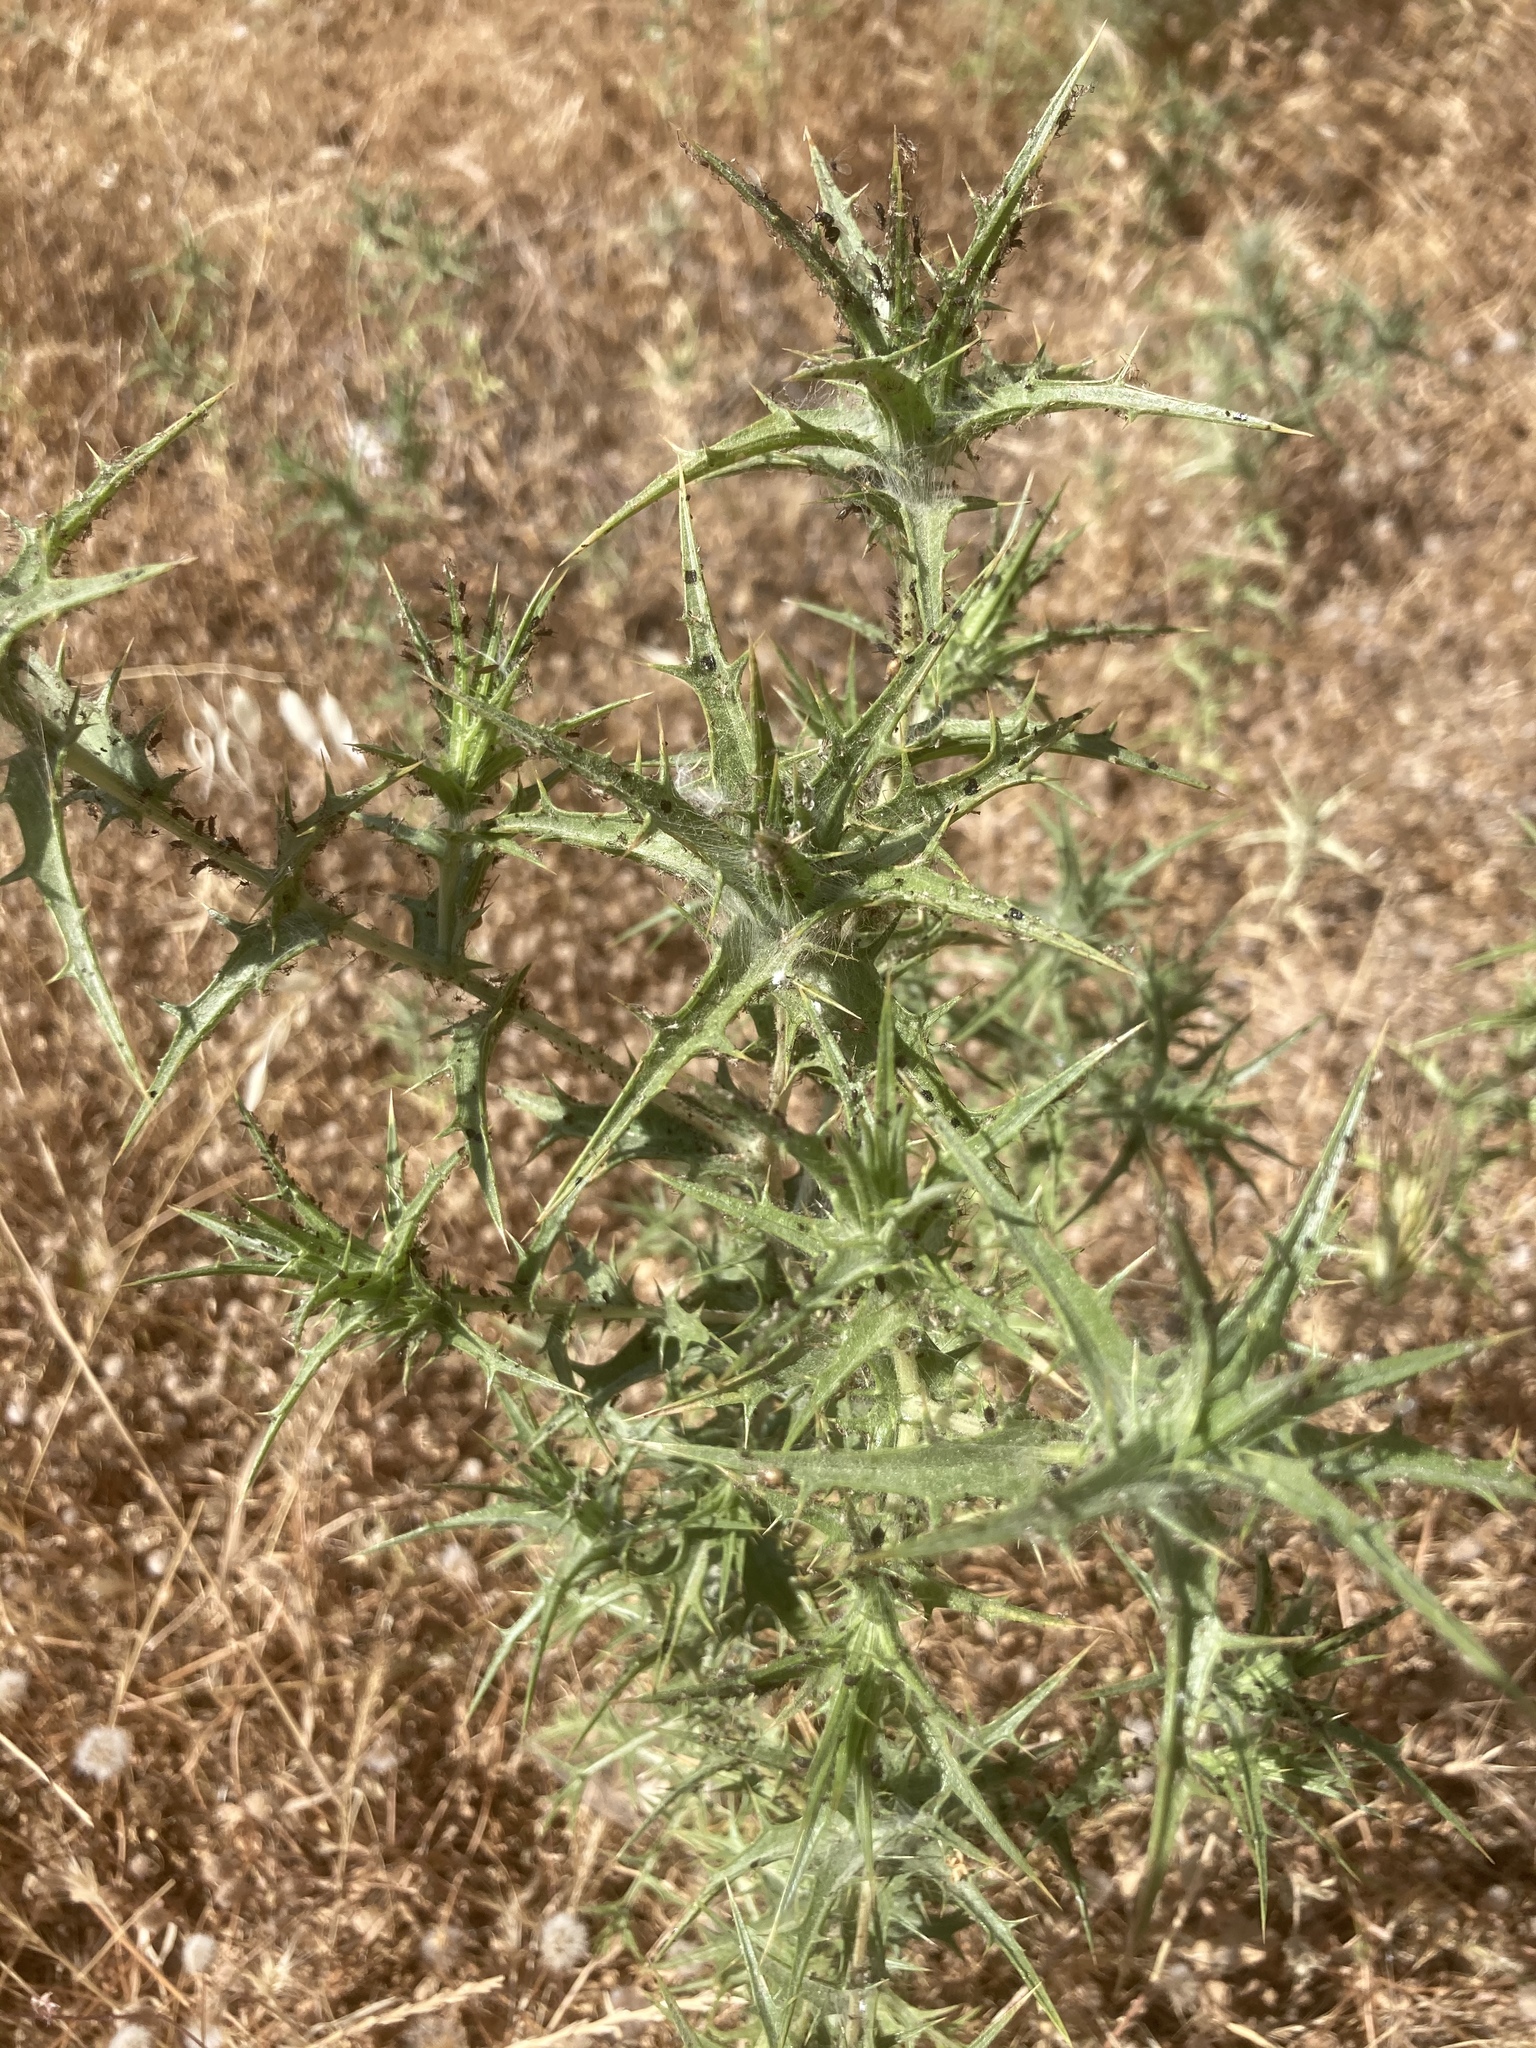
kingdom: Plantae
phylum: Tracheophyta
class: Magnoliopsida
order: Asterales
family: Asteraceae
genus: Carthamus
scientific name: Carthamus lanatus
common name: Downy safflower
